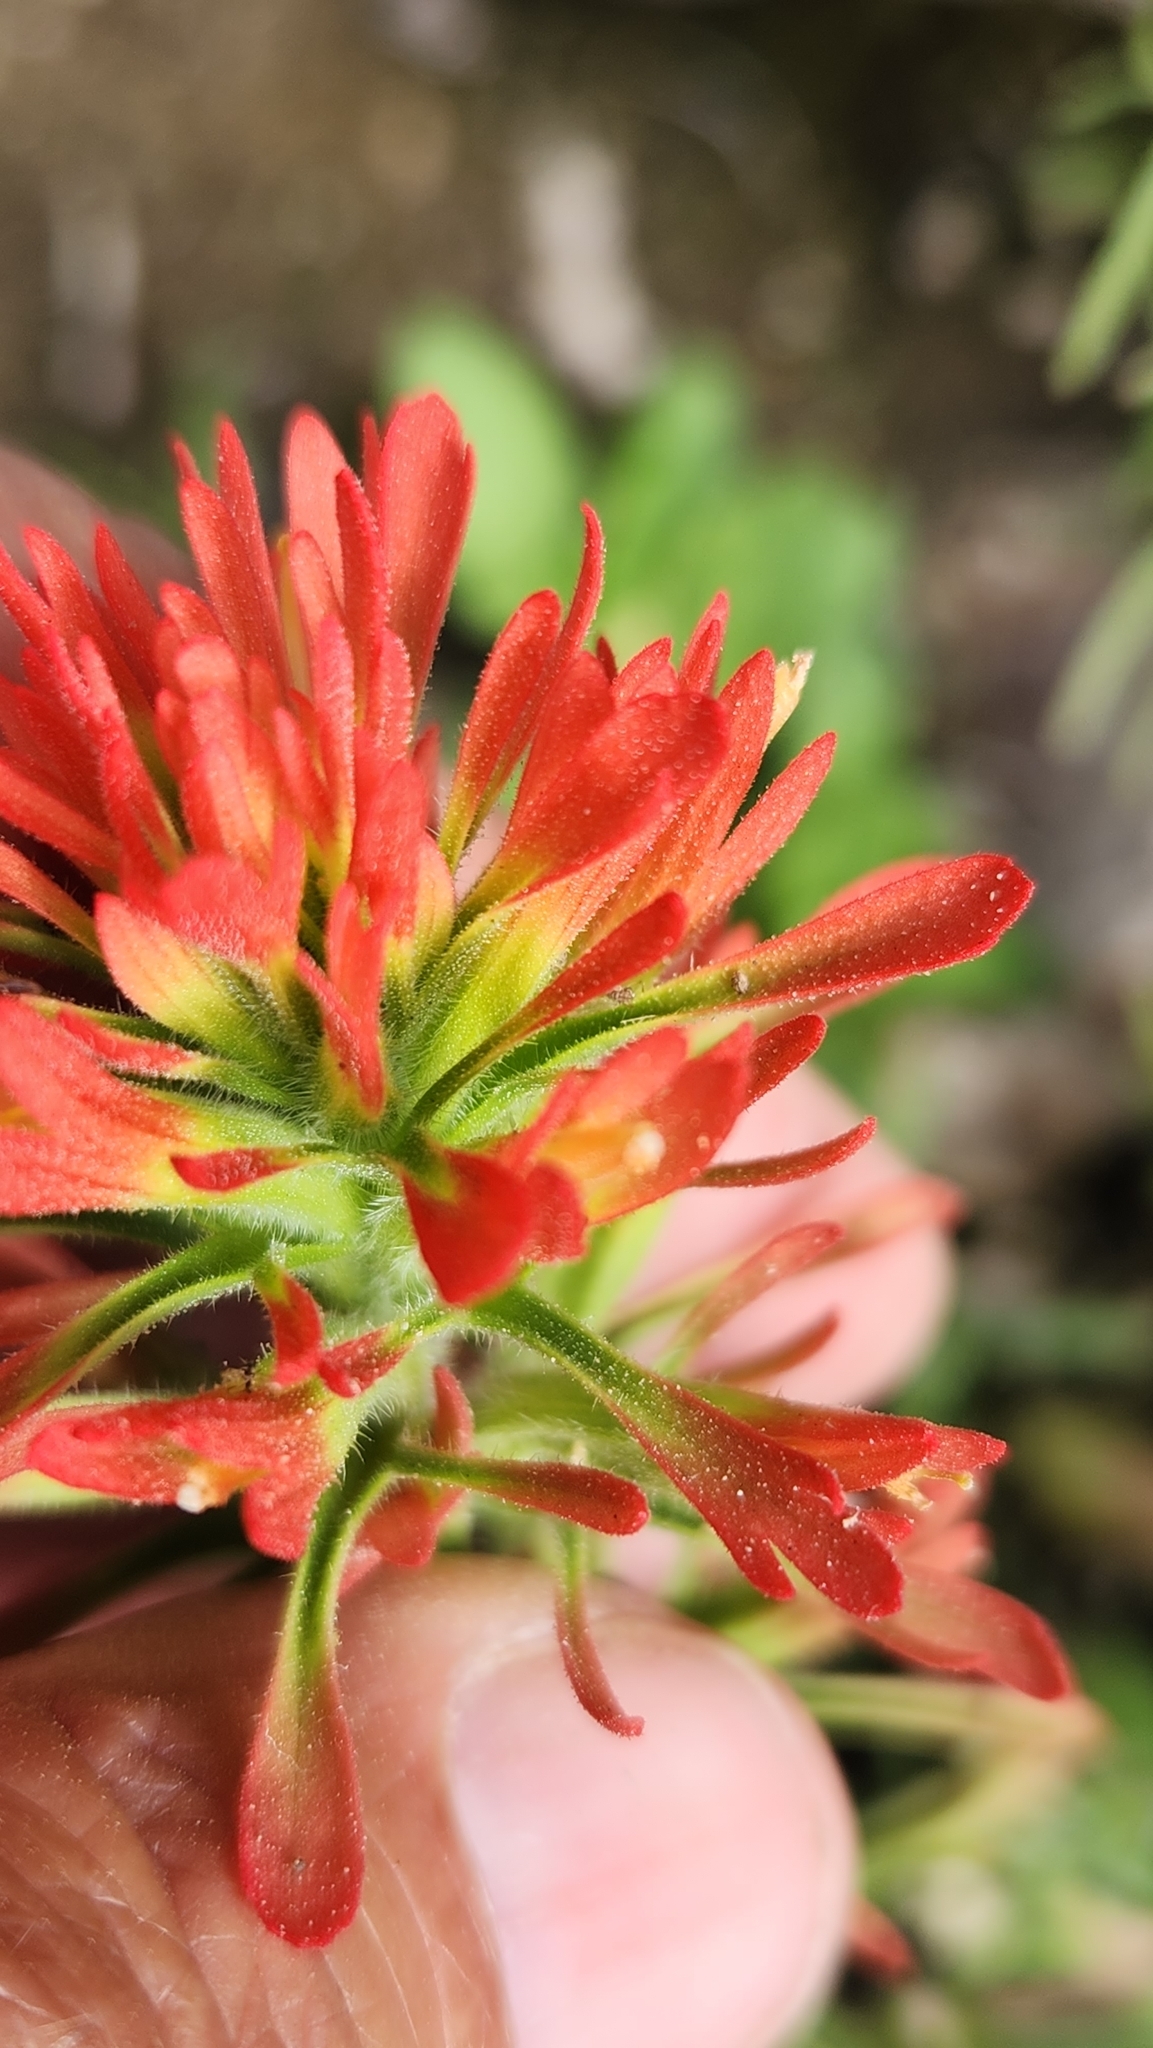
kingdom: Plantae
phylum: Tracheophyta
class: Magnoliopsida
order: Lamiales
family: Orobanchaceae
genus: Castilleja
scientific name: Castilleja bryantii
